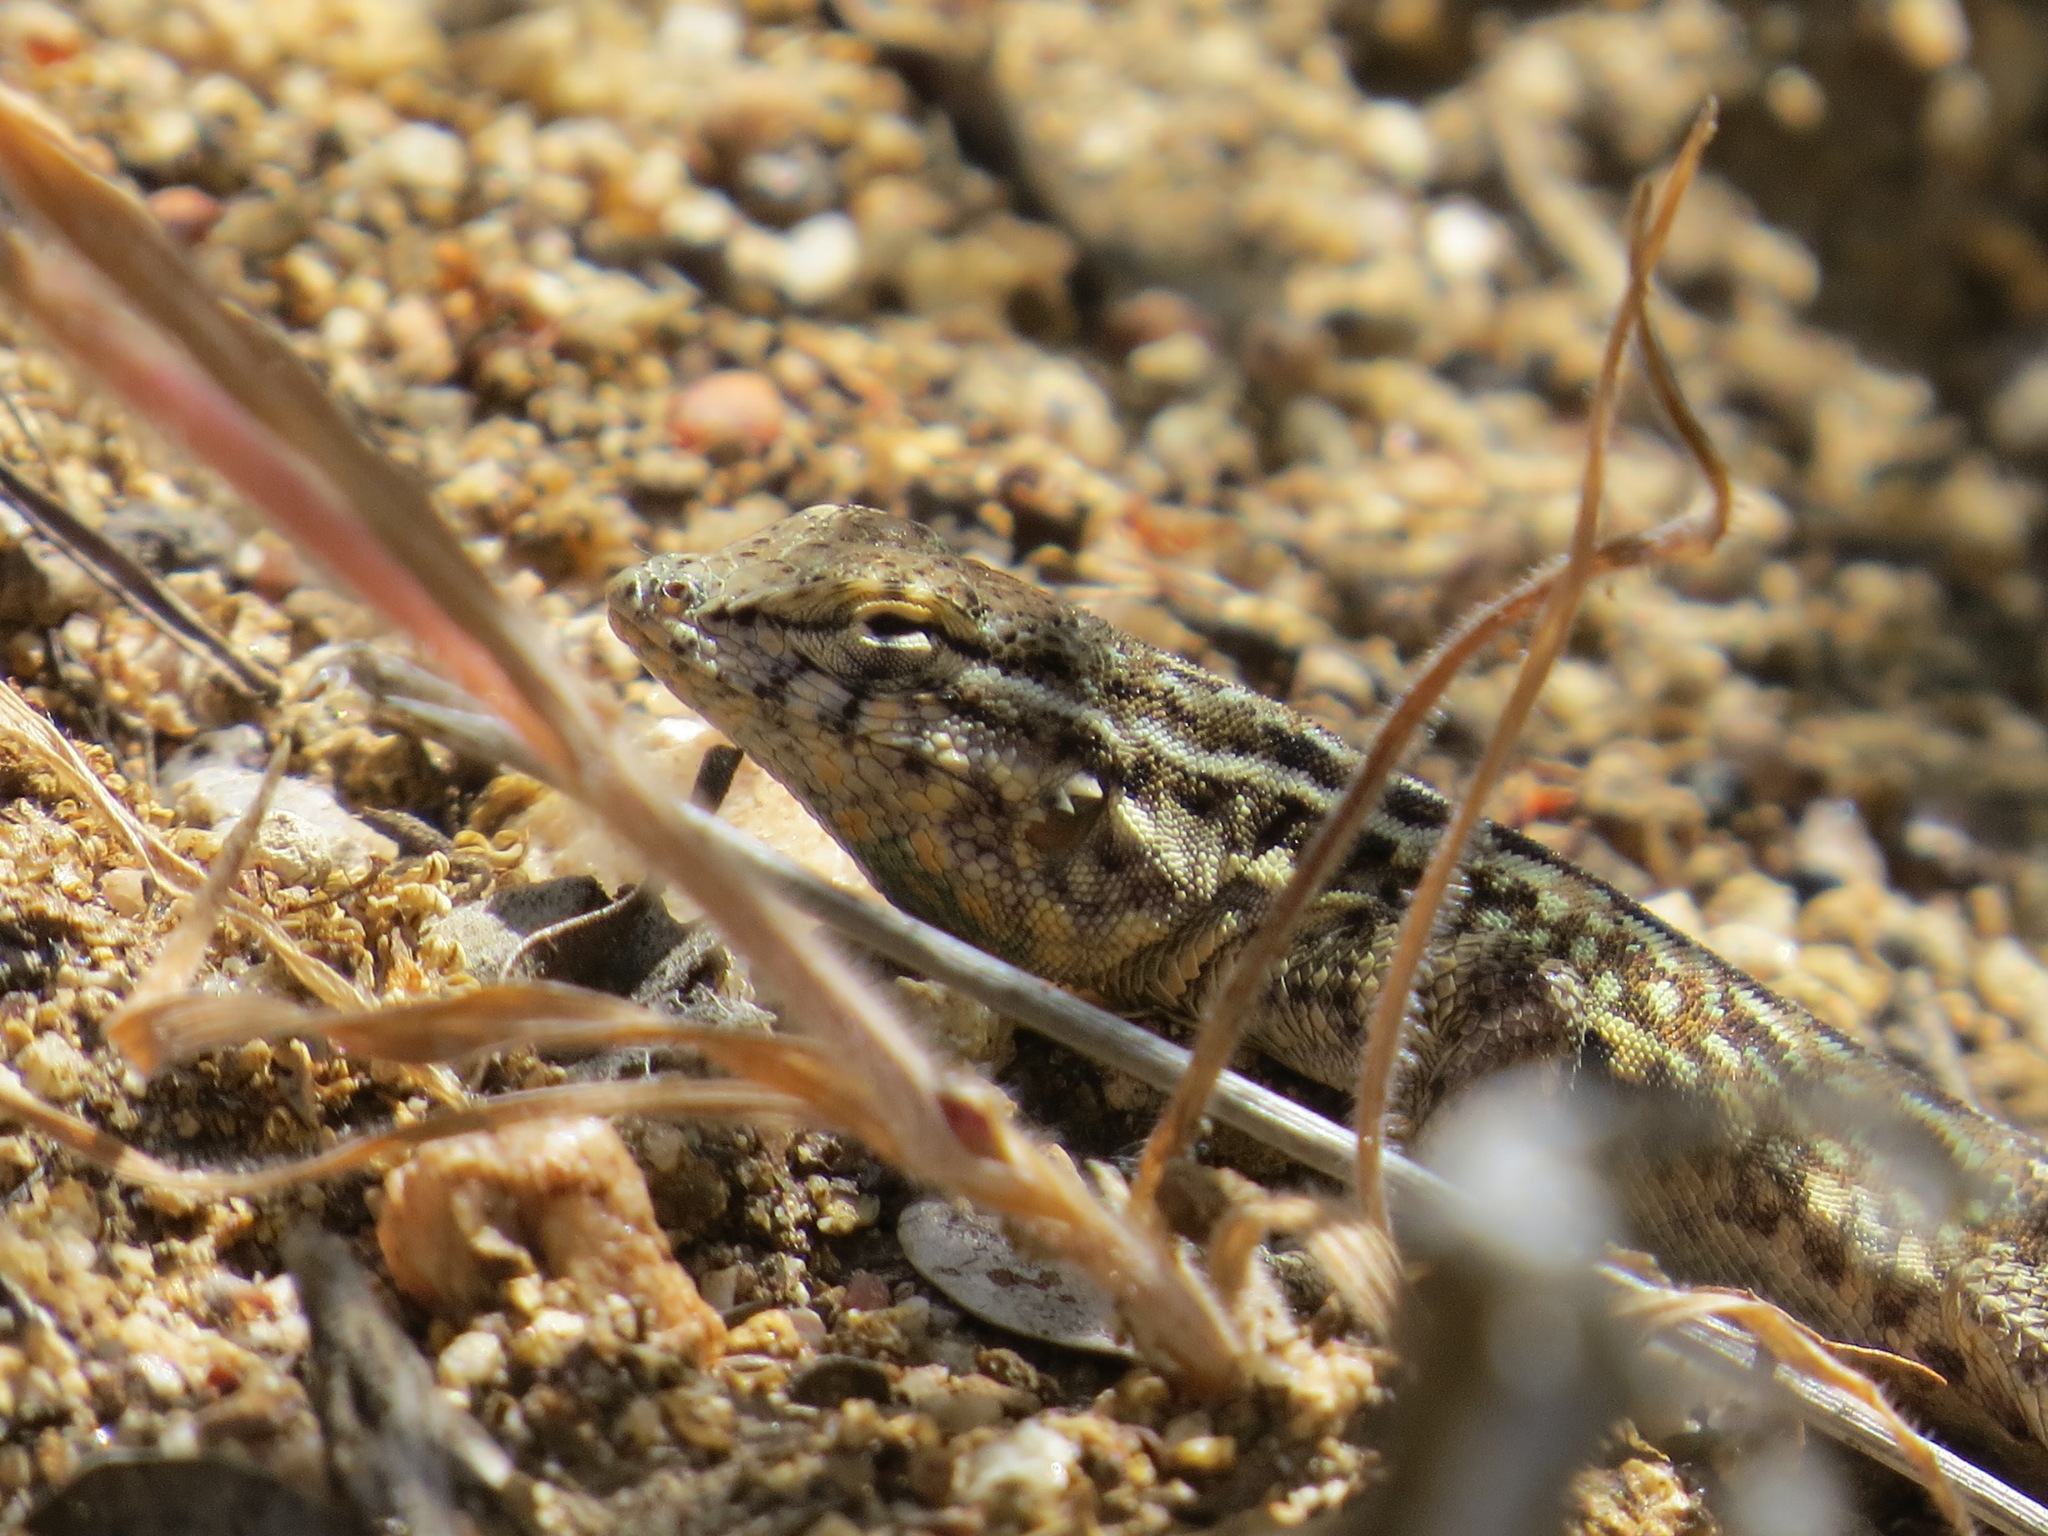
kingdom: Animalia
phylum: Chordata
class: Squamata
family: Phrynosomatidae
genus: Uta
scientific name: Uta stansburiana
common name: Side-blotched lizard
